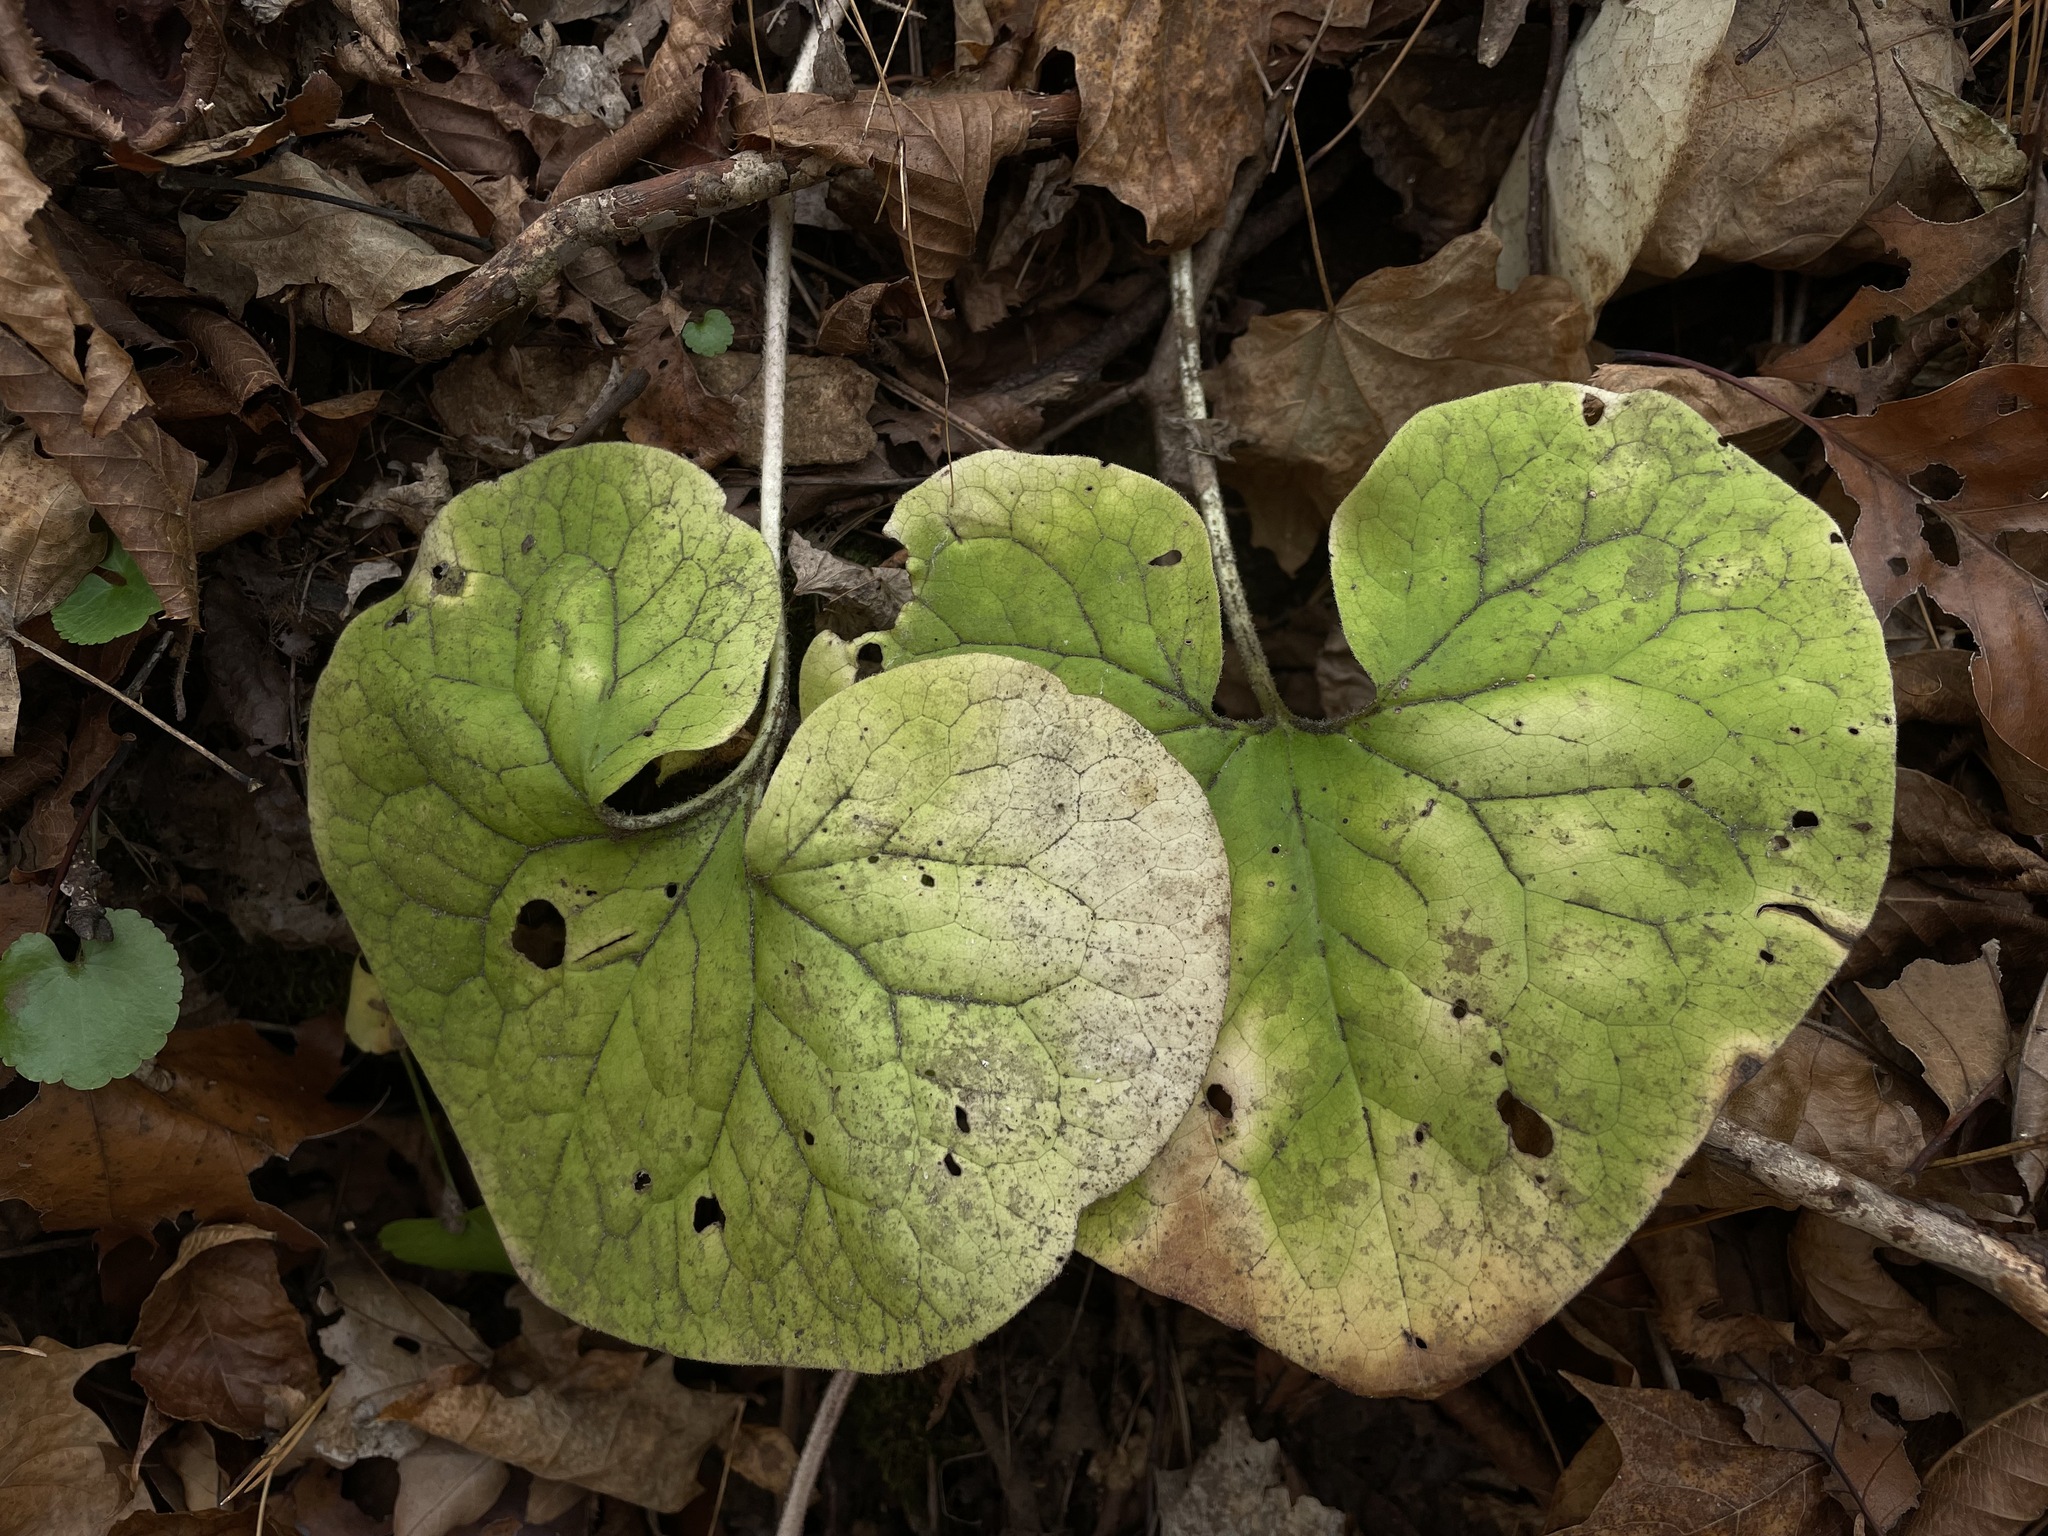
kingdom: Plantae
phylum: Tracheophyta
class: Magnoliopsida
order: Piperales
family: Aristolochiaceae
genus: Asarum
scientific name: Asarum canadense
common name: Wild ginger
